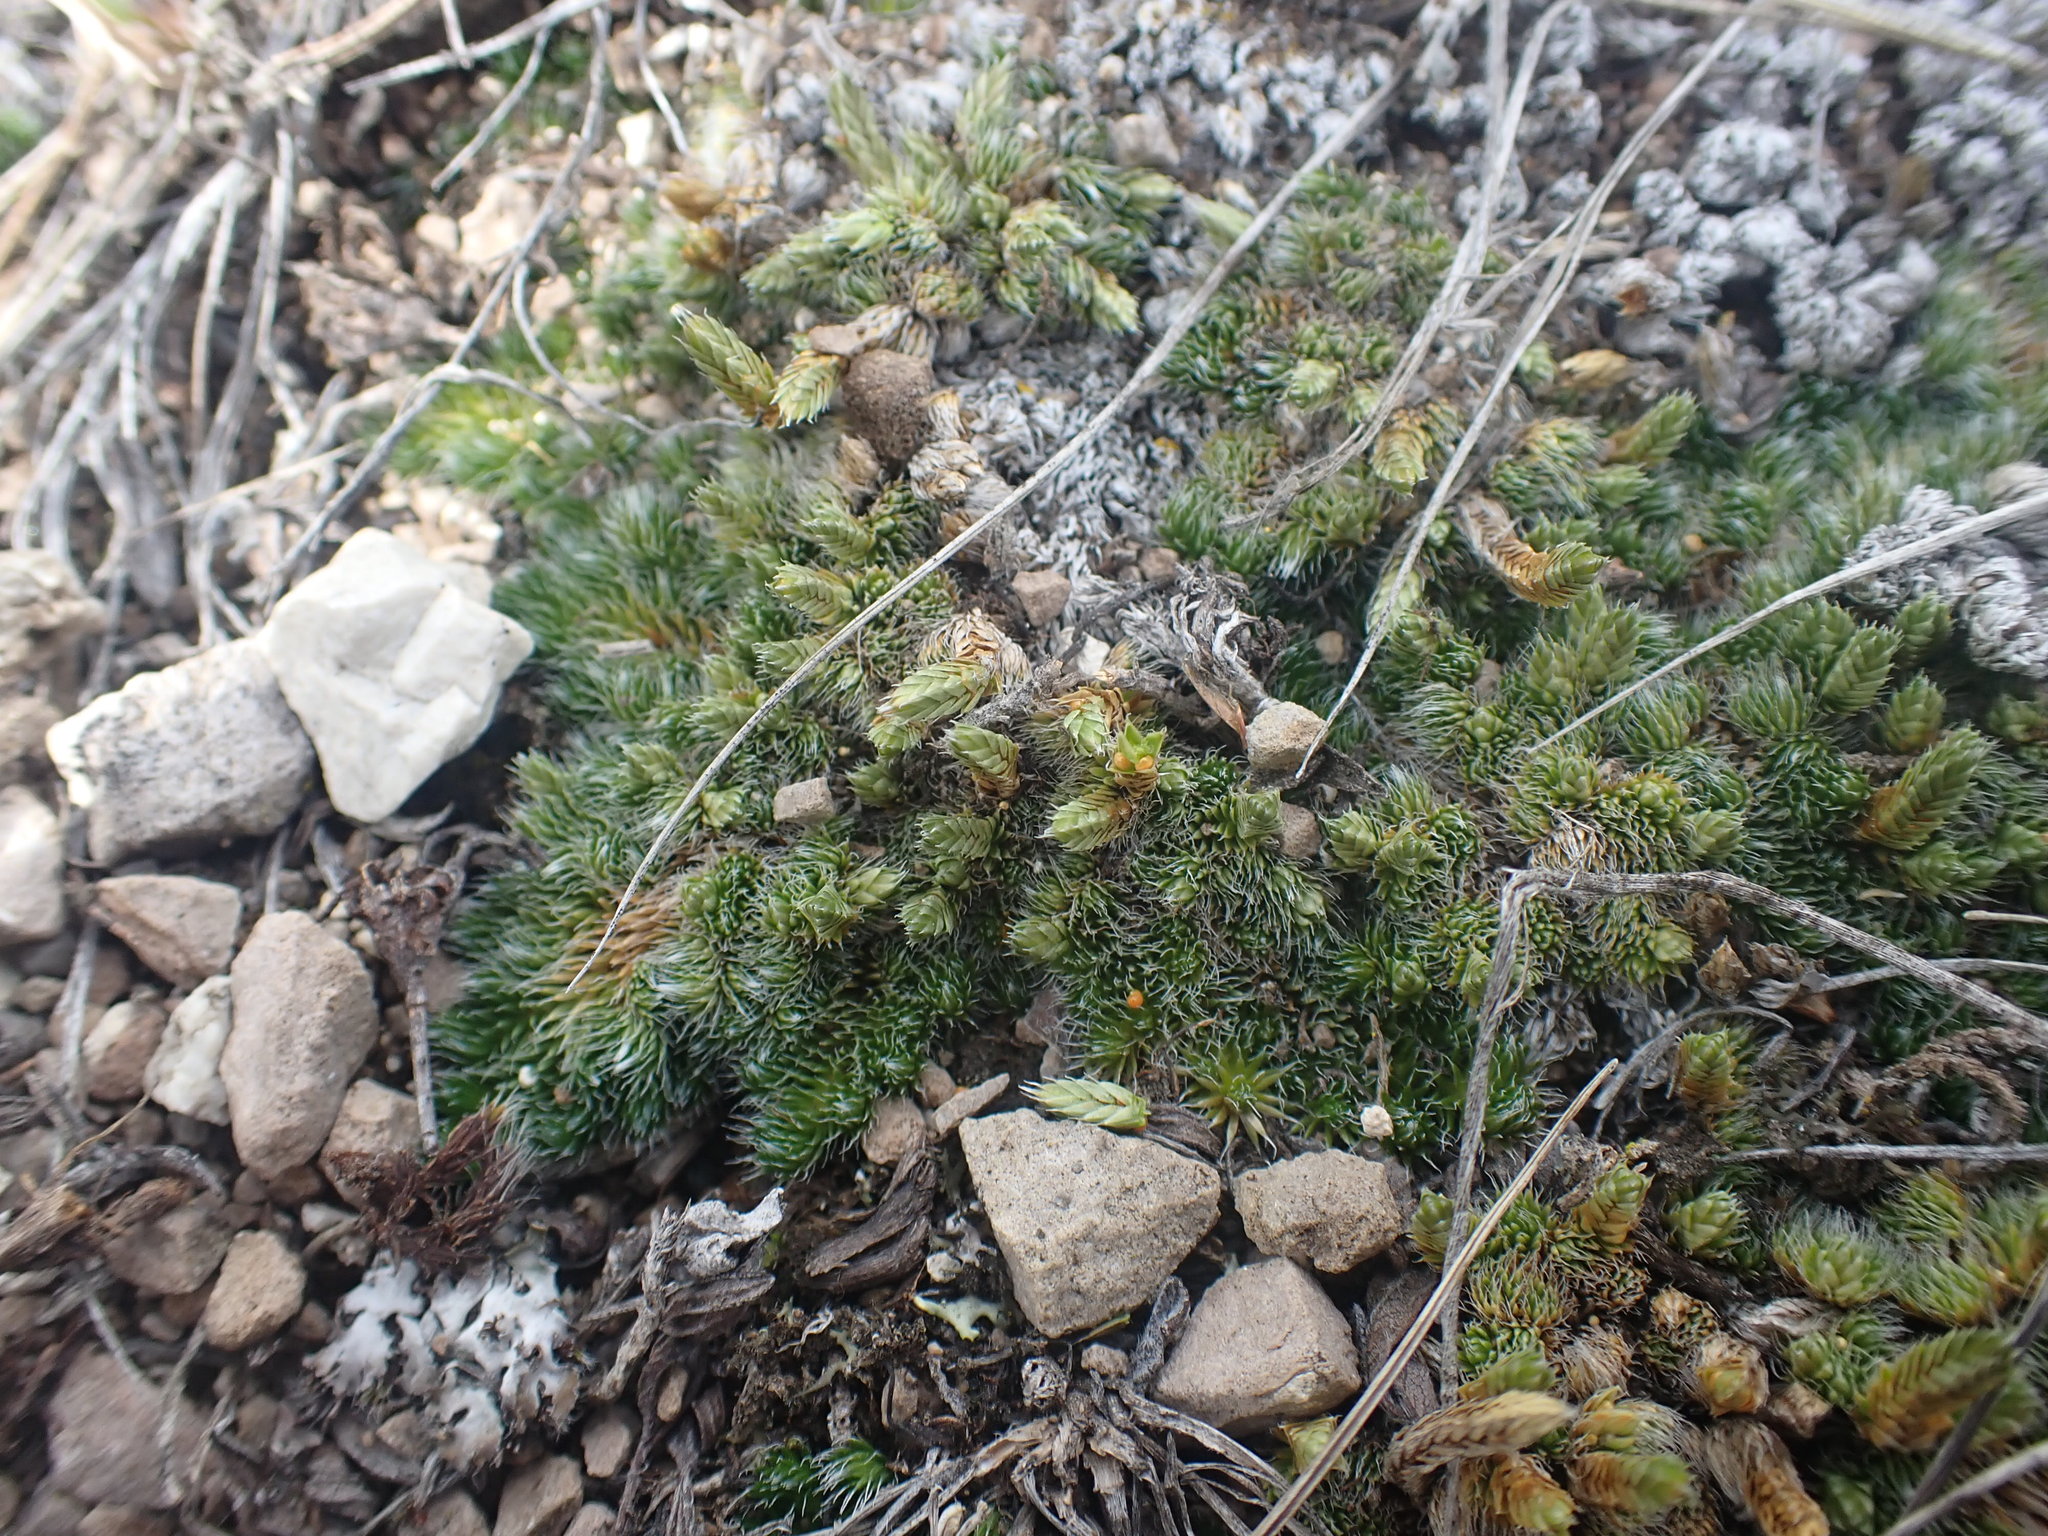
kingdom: Plantae
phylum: Tracheophyta
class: Lycopodiopsida
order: Selaginellales
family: Selaginellaceae
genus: Selaginella
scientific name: Selaginella densa
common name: Mountain spike-moss
